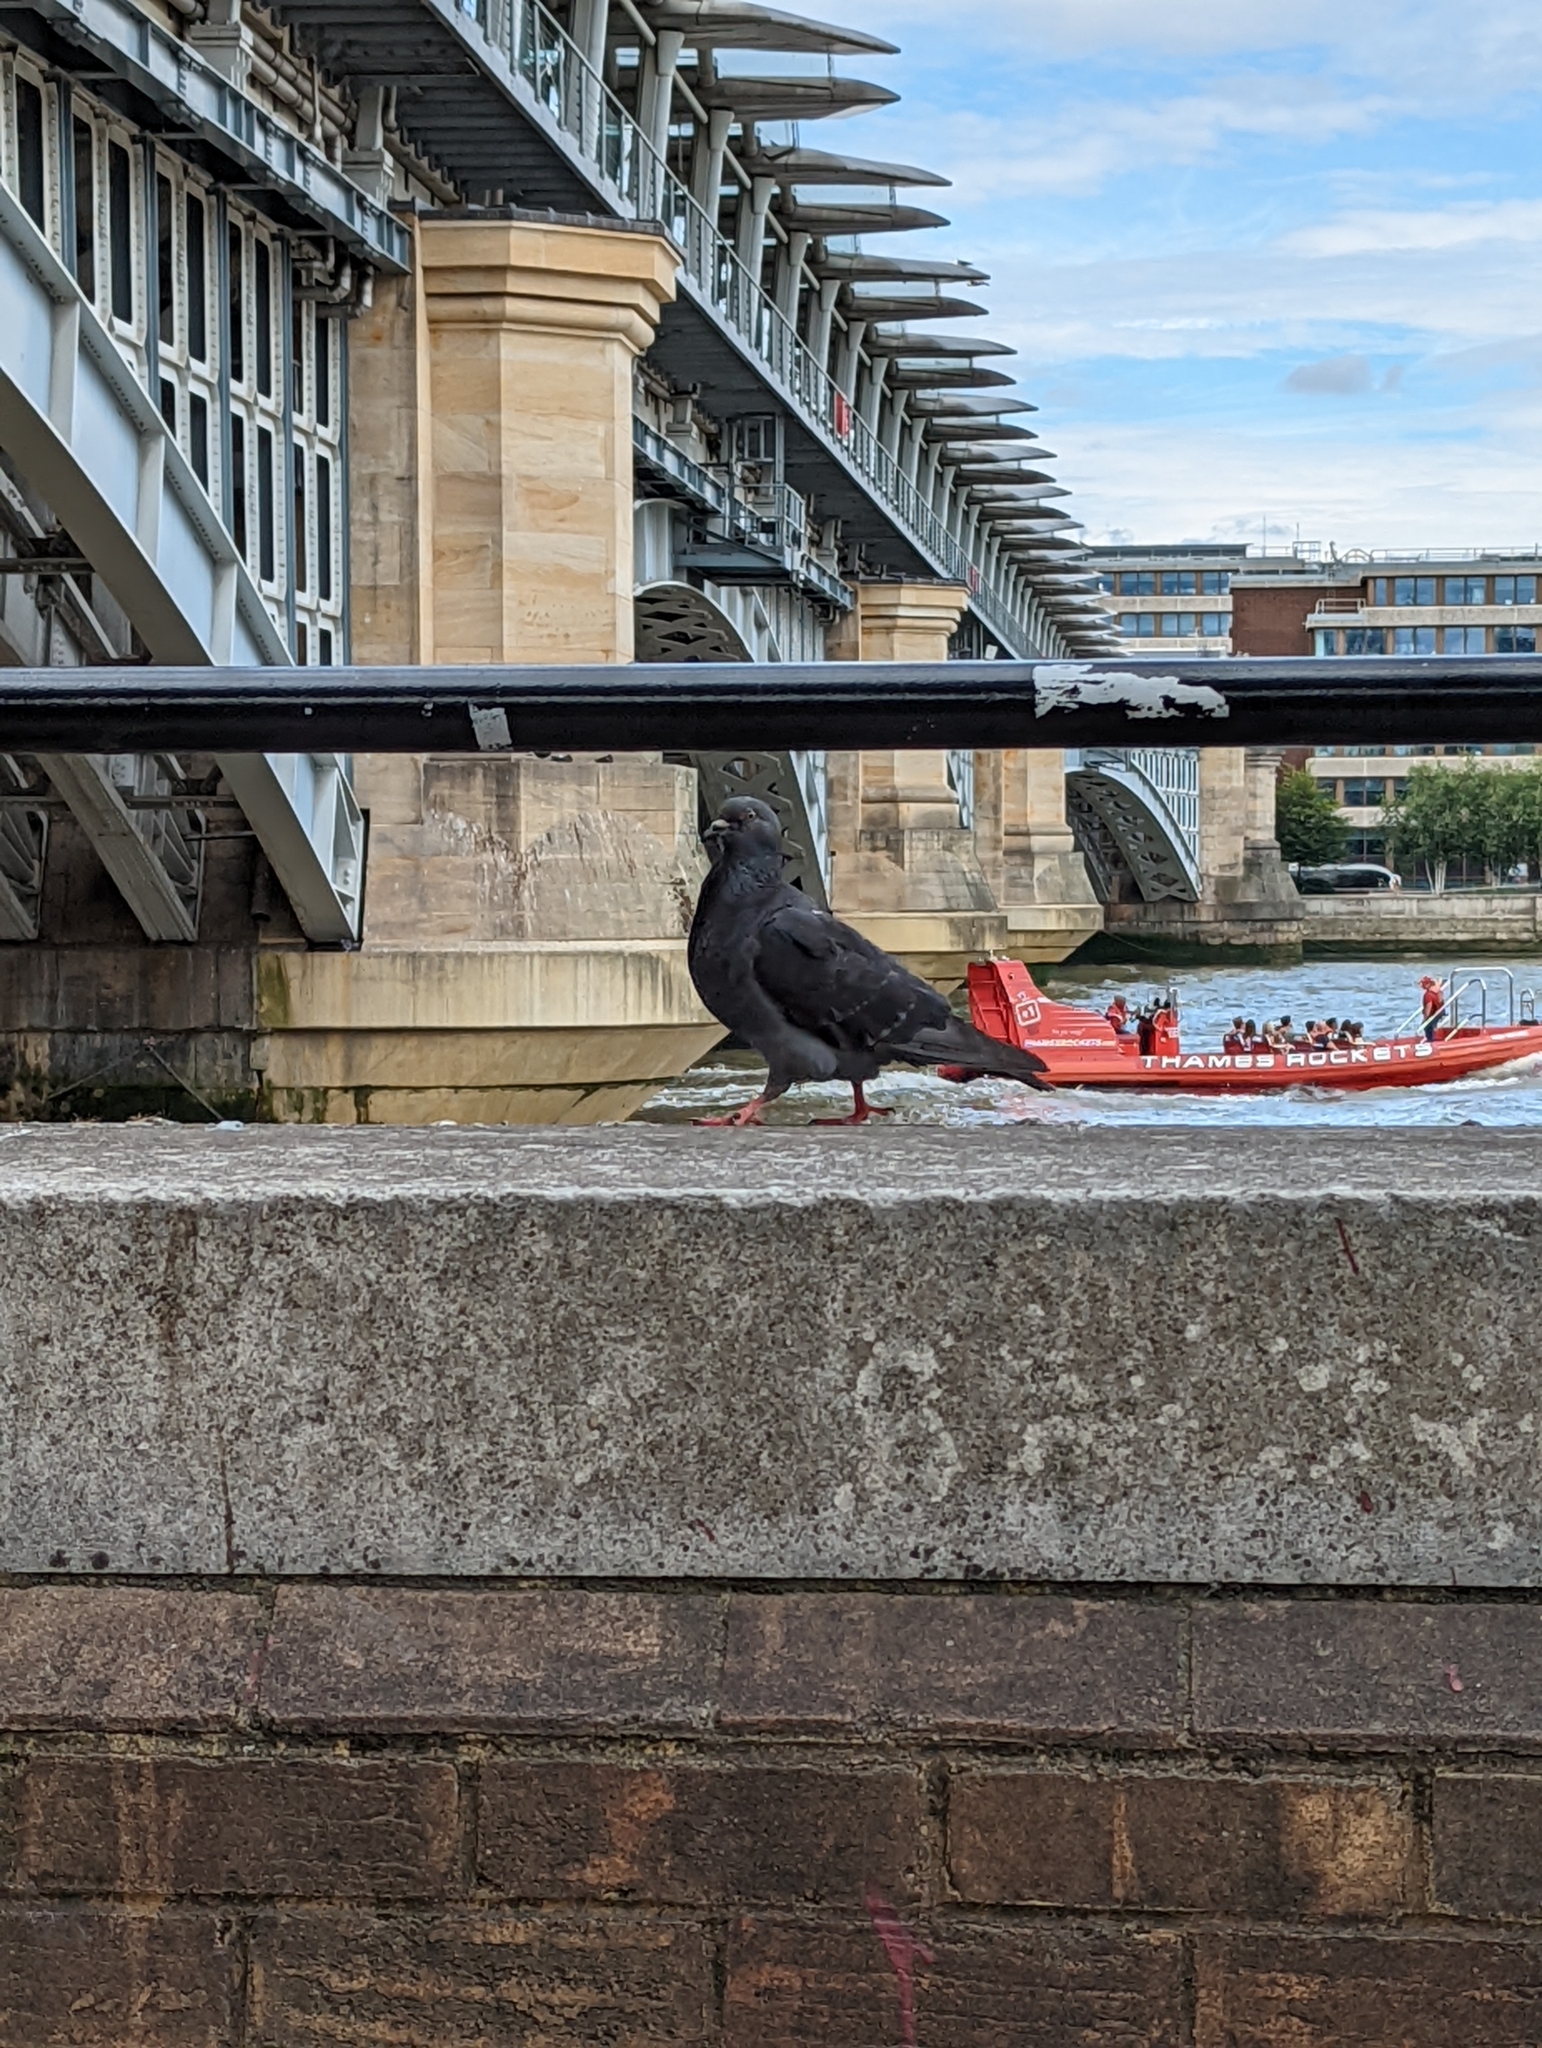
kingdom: Animalia
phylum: Chordata
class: Aves
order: Columbiformes
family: Columbidae
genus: Columba
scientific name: Columba livia
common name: Rock pigeon
